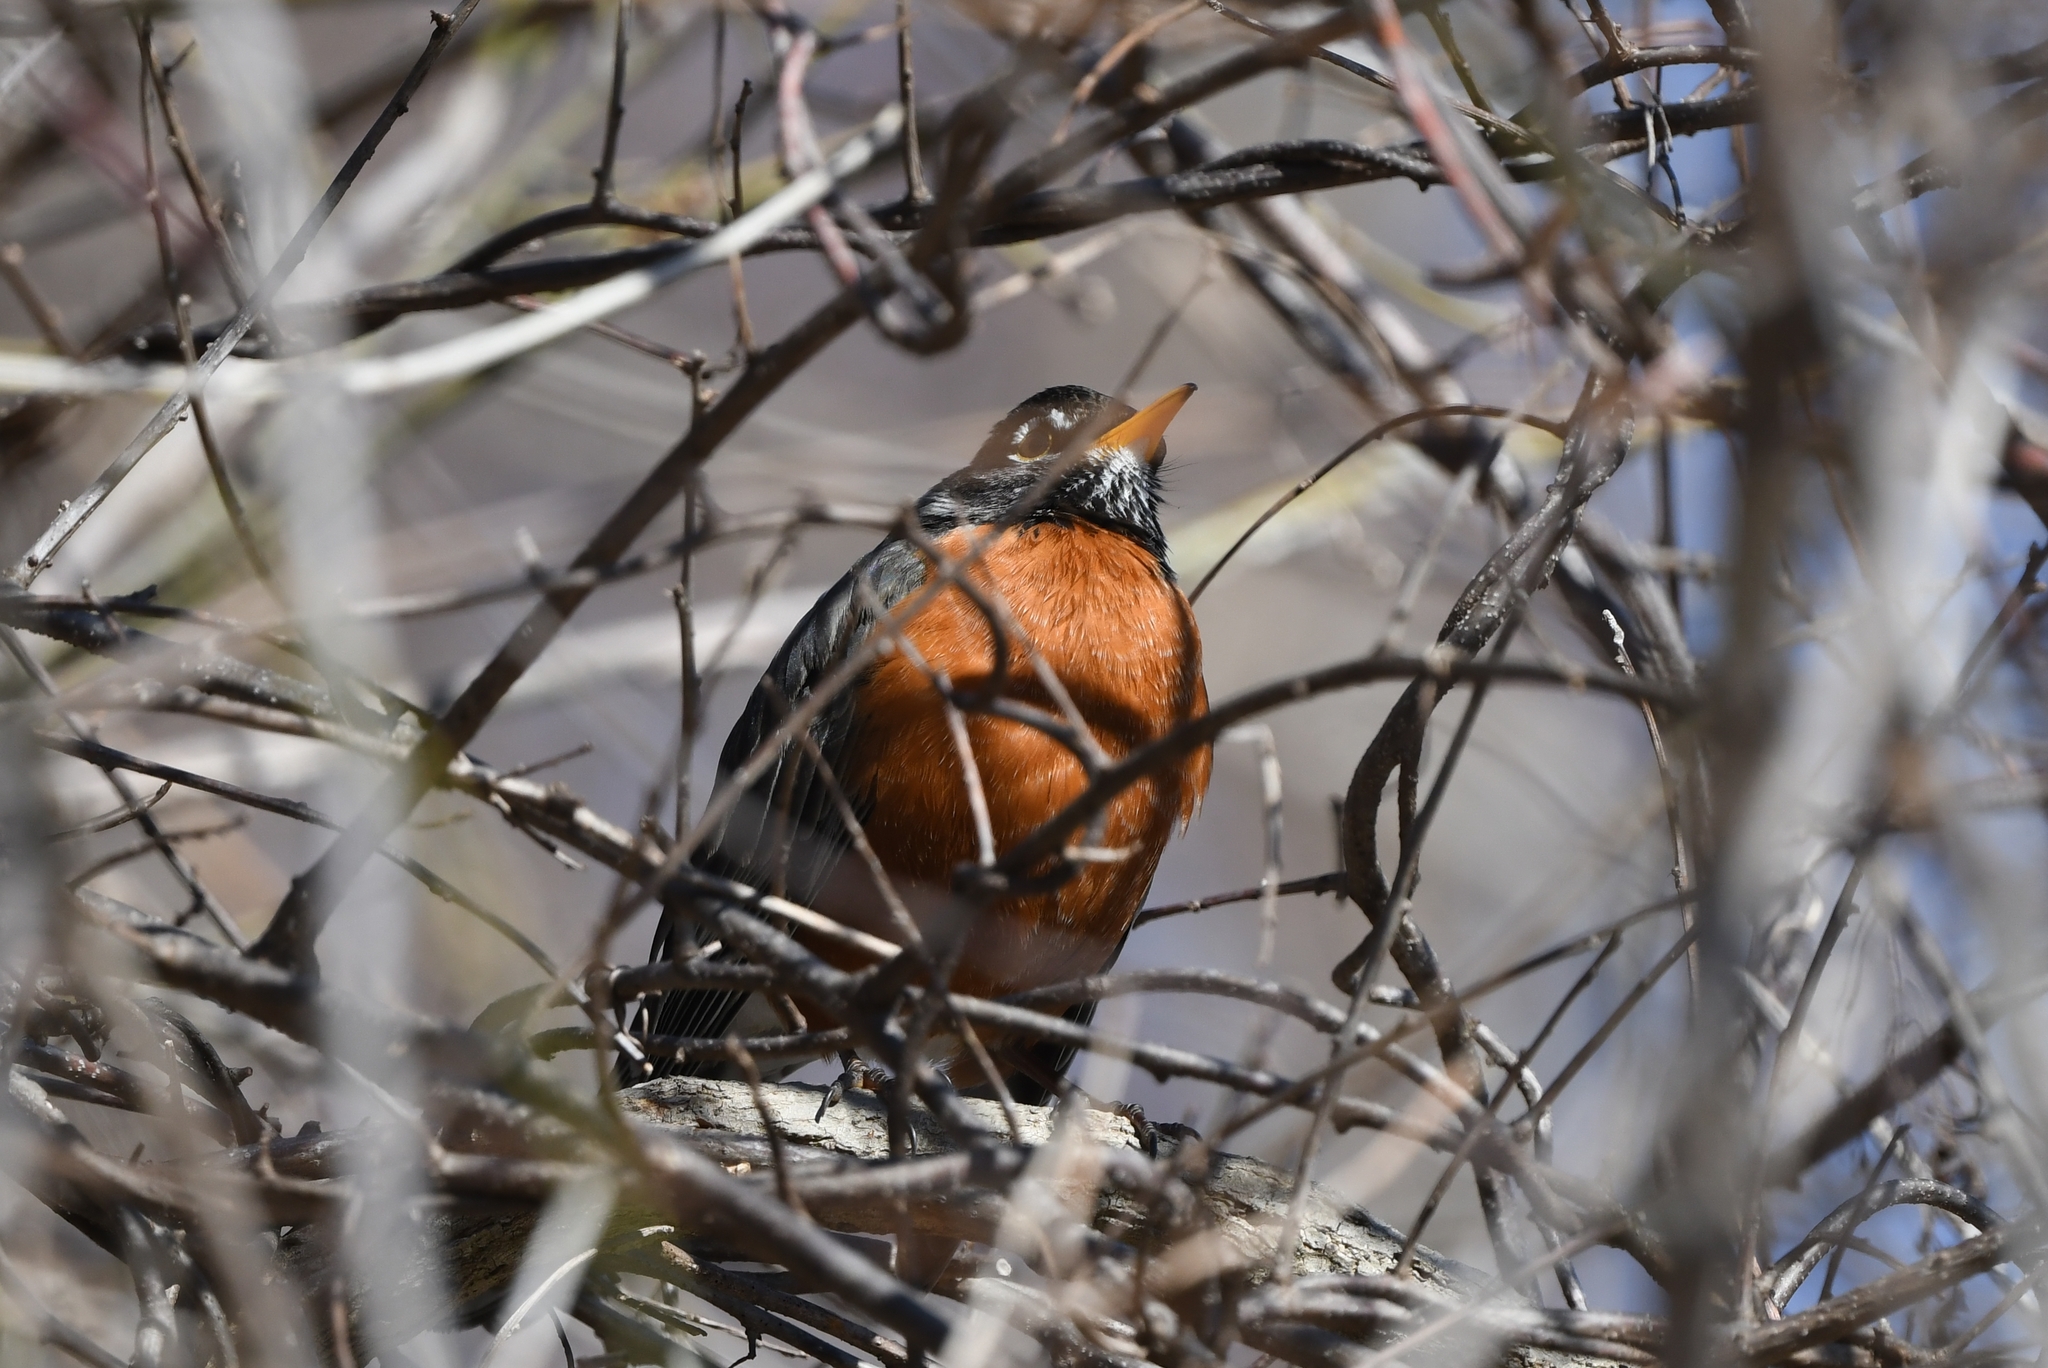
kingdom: Animalia
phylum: Chordata
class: Aves
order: Passeriformes
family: Turdidae
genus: Turdus
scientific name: Turdus migratorius
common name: American robin
